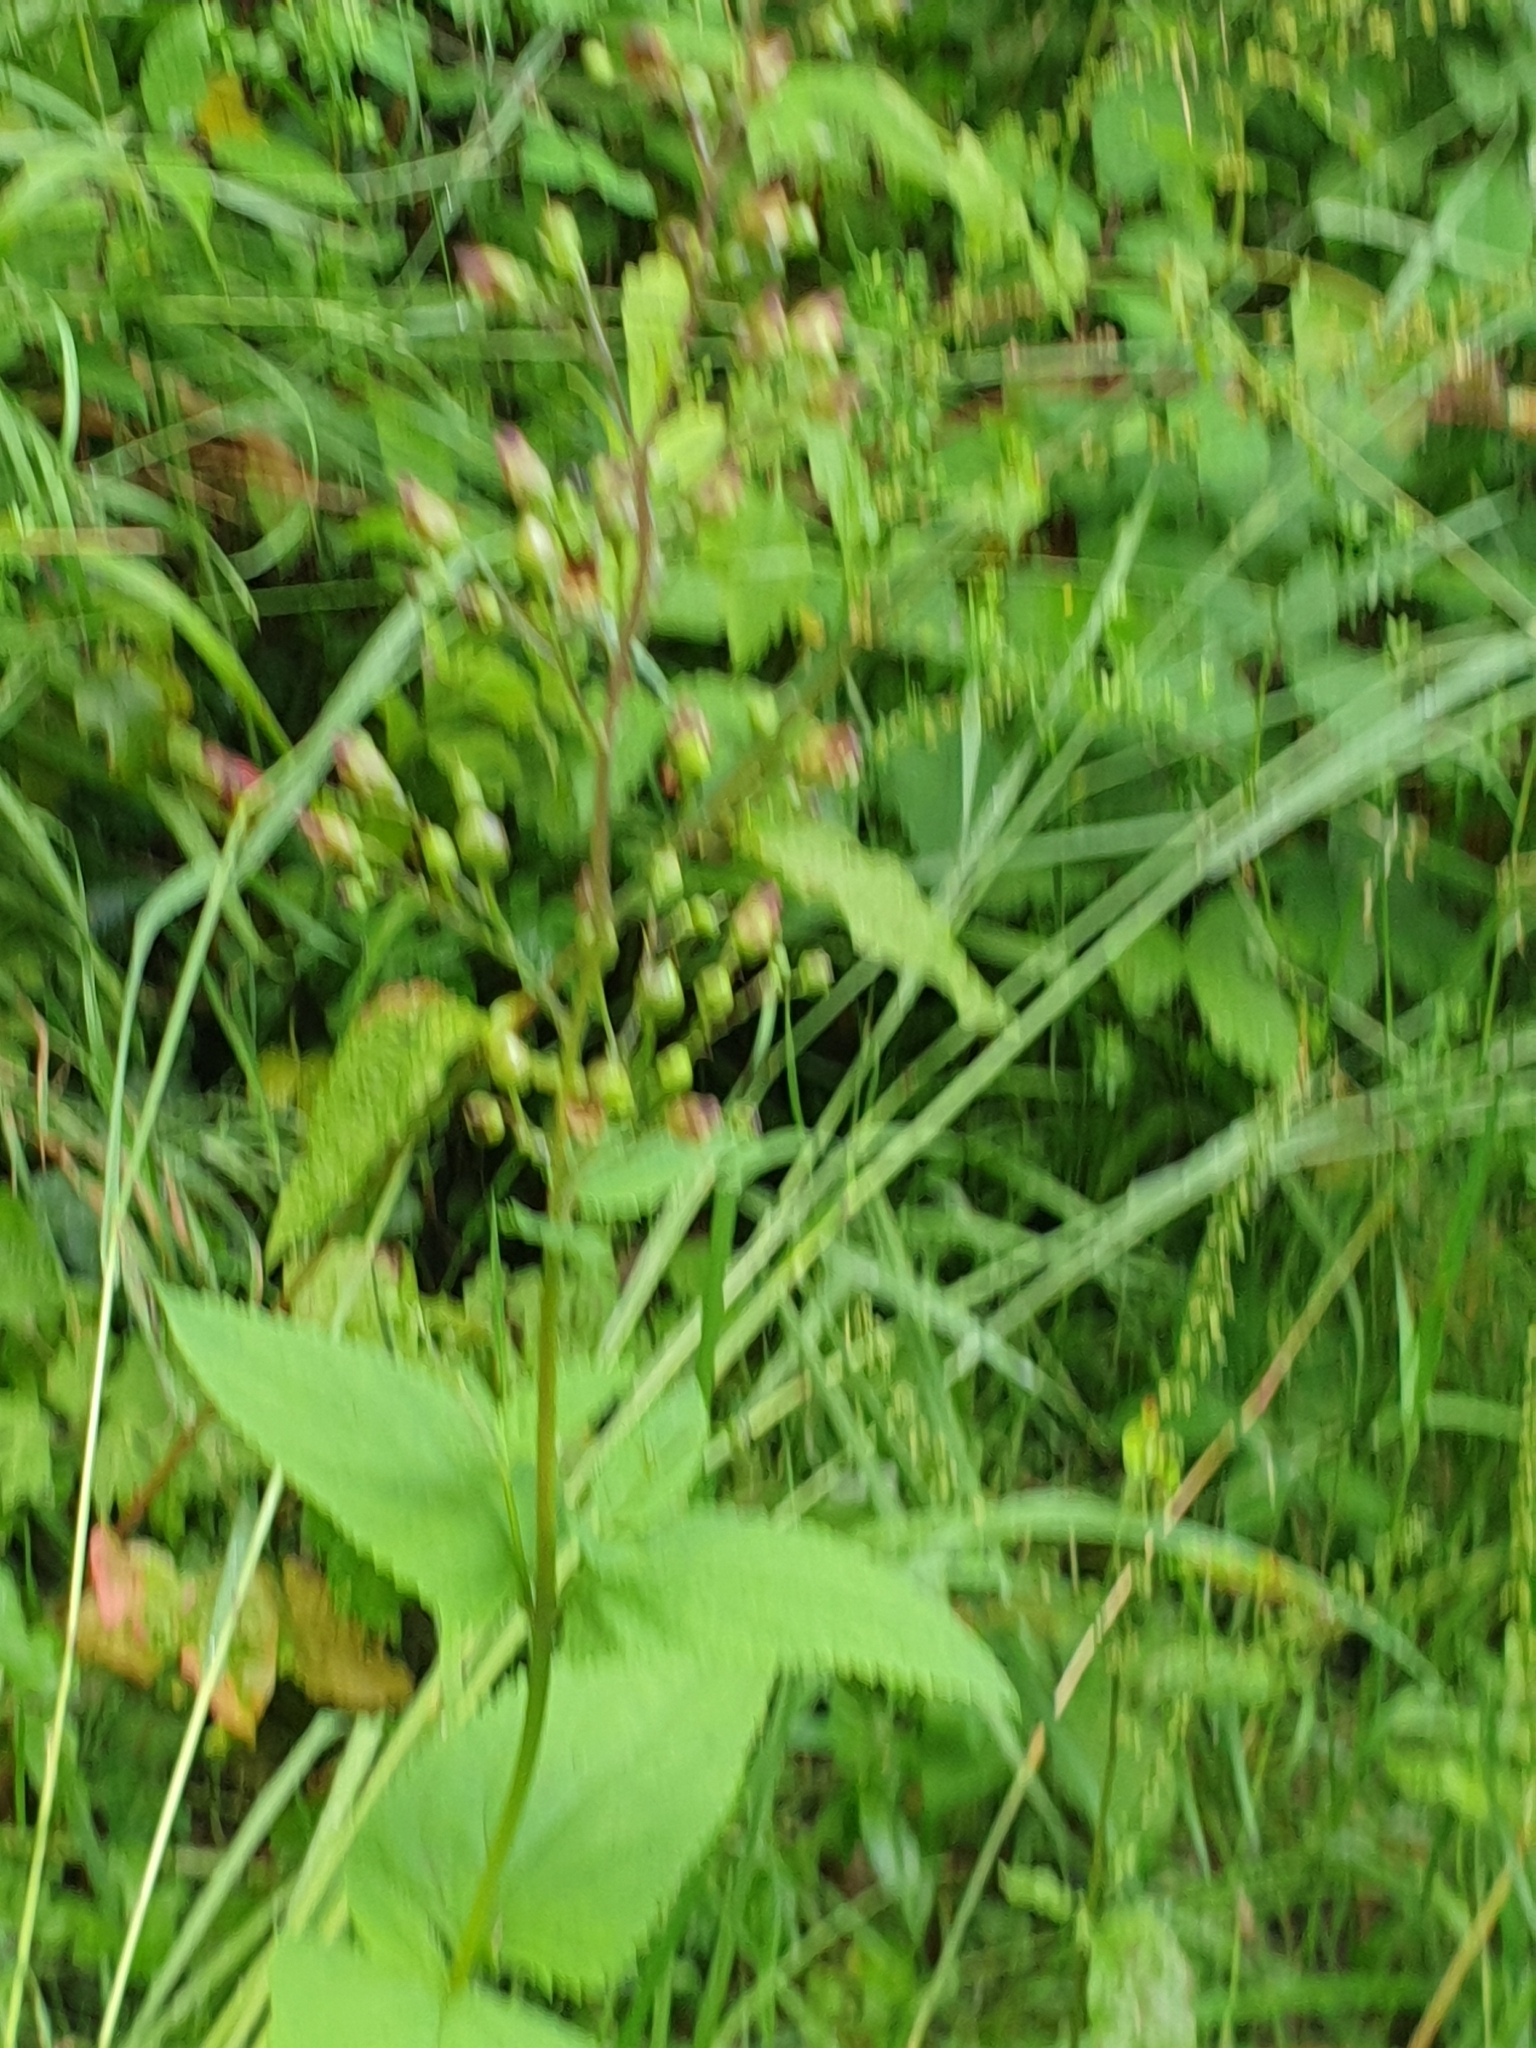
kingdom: Plantae
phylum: Tracheophyta
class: Magnoliopsida
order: Lamiales
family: Scrophulariaceae
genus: Scrophularia
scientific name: Scrophularia nodosa
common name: Common figwort
